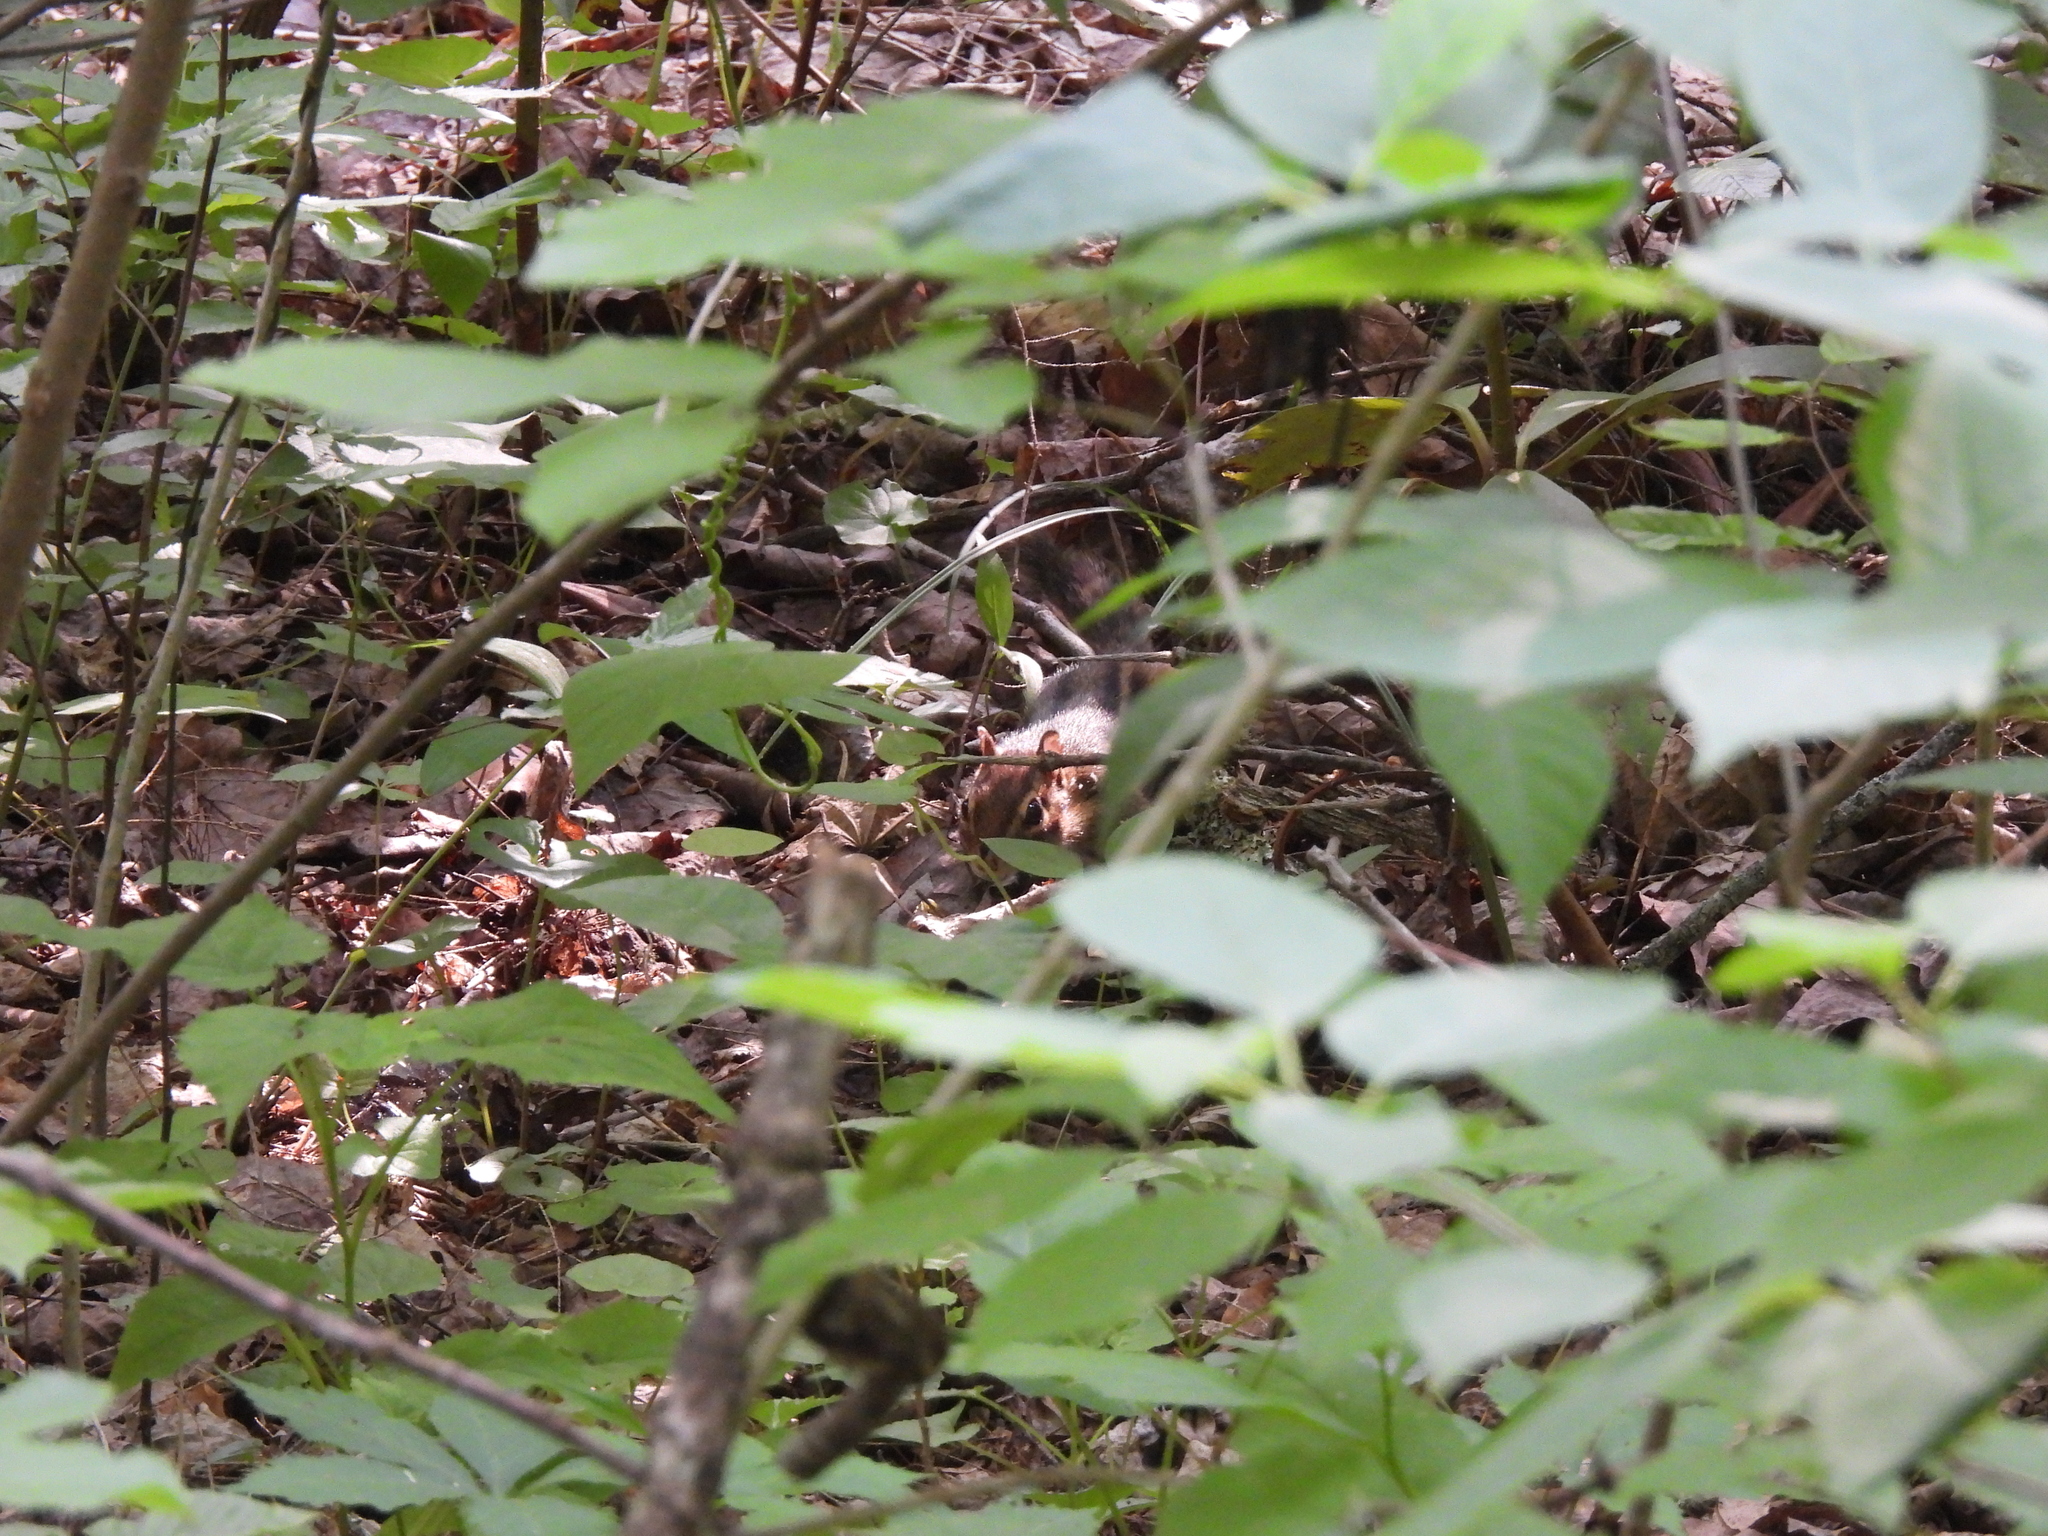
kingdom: Animalia
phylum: Chordata
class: Mammalia
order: Rodentia
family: Sciuridae
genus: Tamias
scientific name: Tamias striatus
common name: Eastern chipmunk
